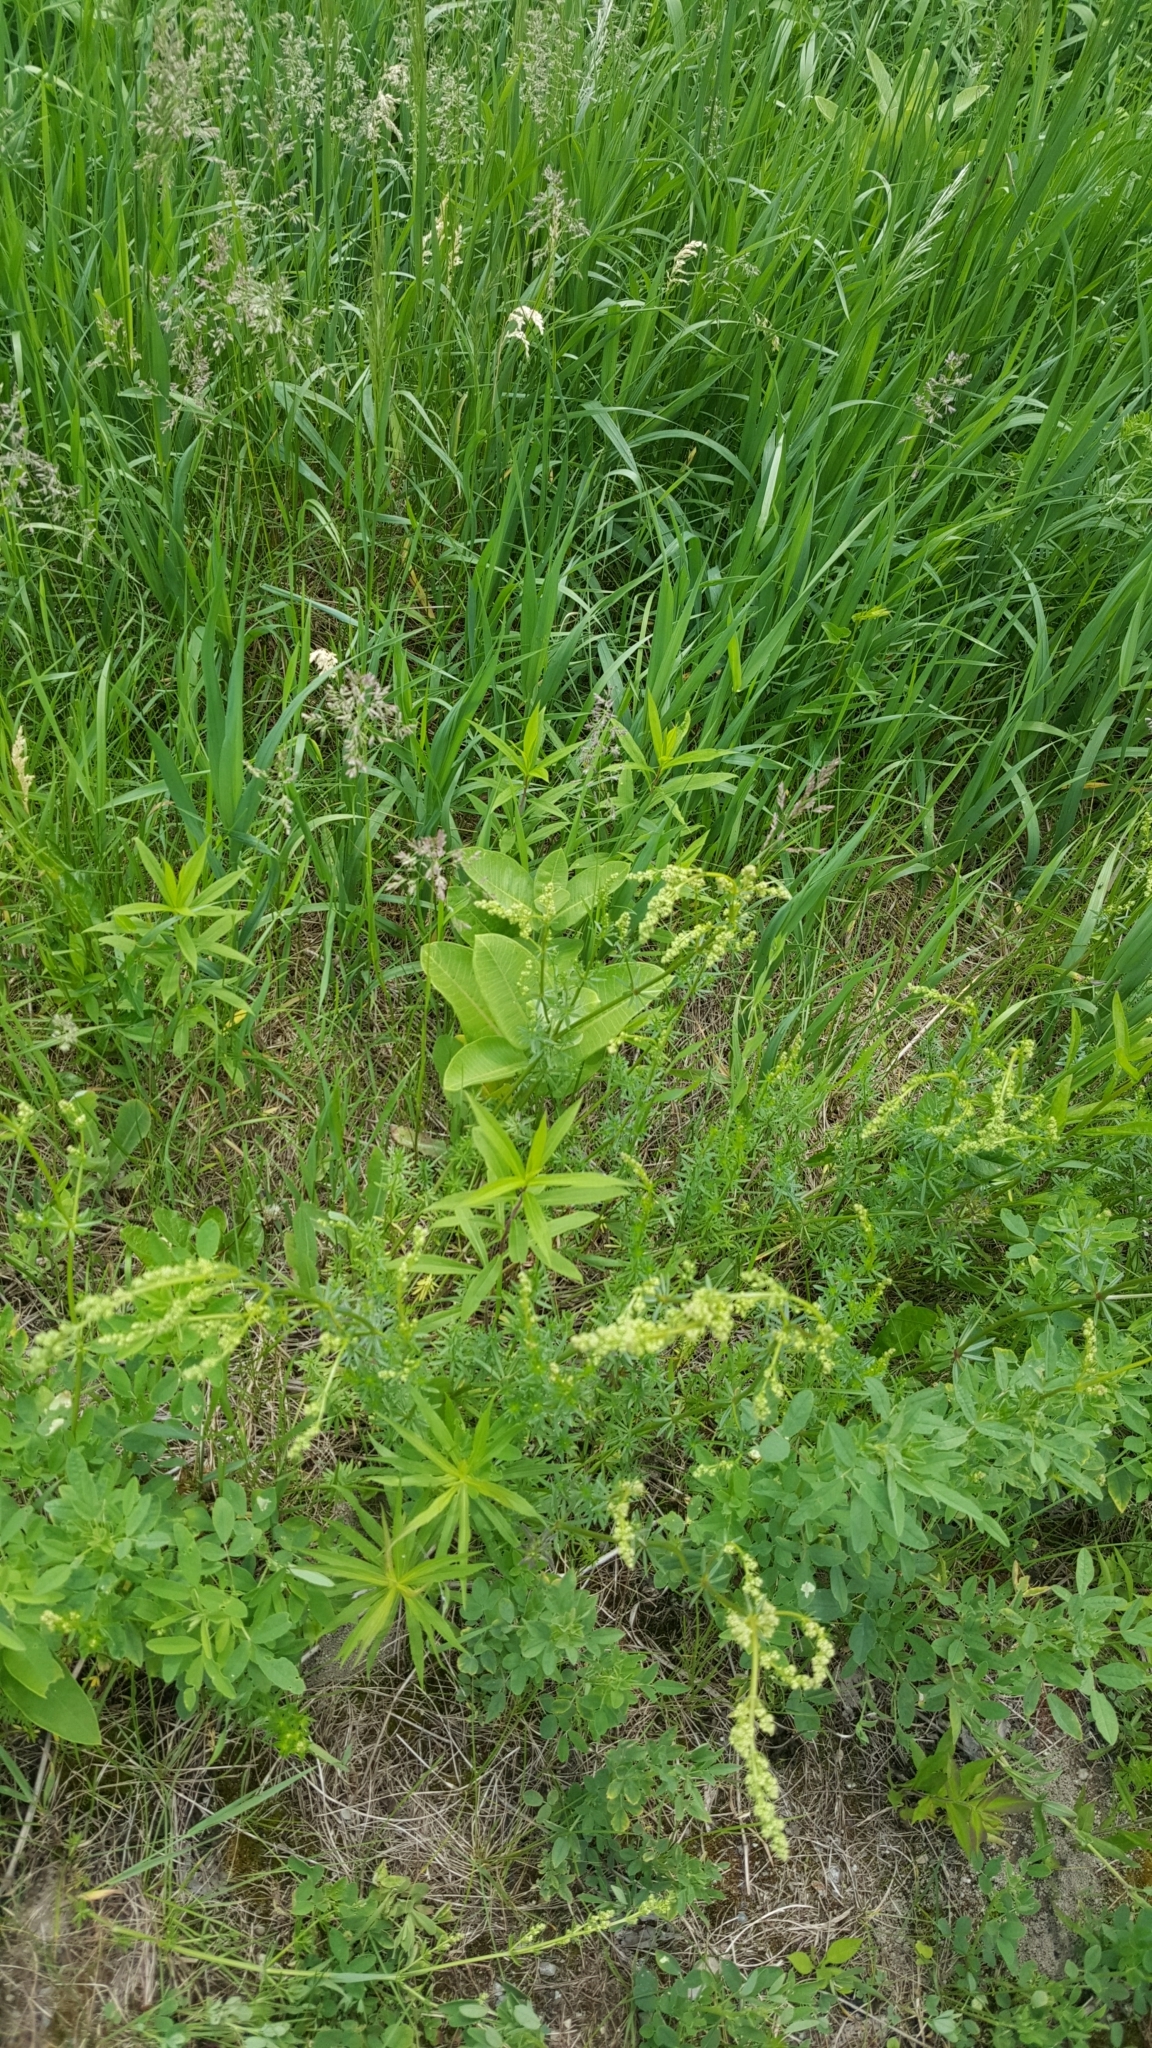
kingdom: Plantae
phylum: Tracheophyta
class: Magnoliopsida
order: Gentianales
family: Apocynaceae
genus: Asclepias
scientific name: Asclepias syriaca
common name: Common milkweed
